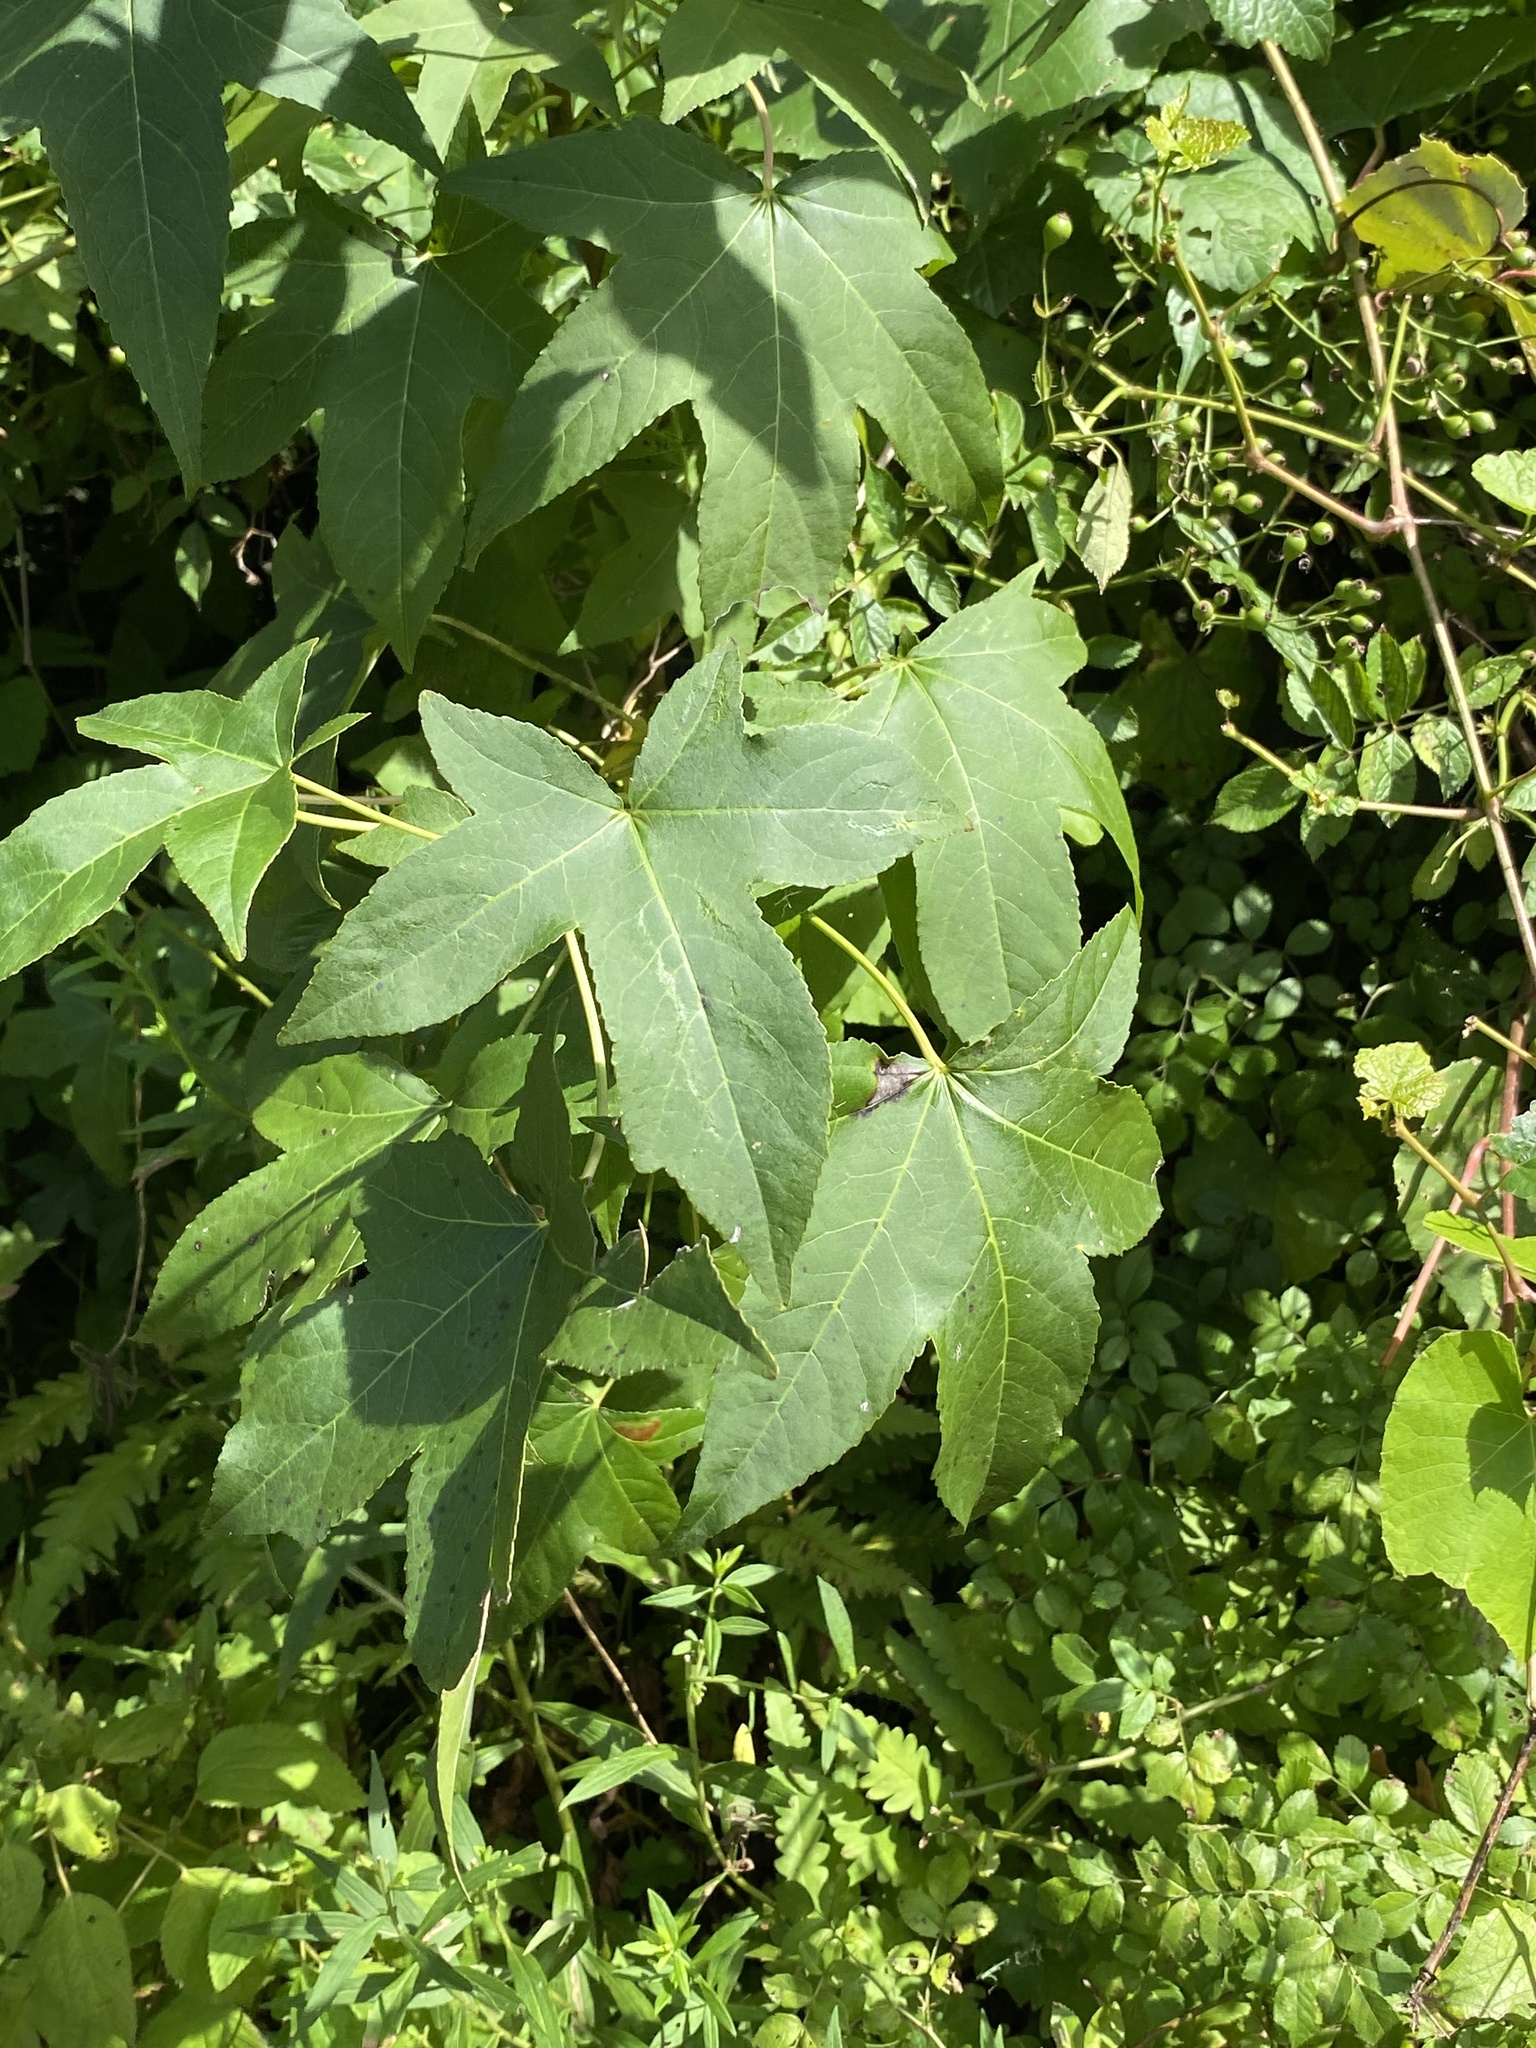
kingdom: Plantae
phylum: Tracheophyta
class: Magnoliopsida
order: Saxifragales
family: Altingiaceae
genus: Liquidambar
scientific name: Liquidambar styraciflua
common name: Sweet gum
